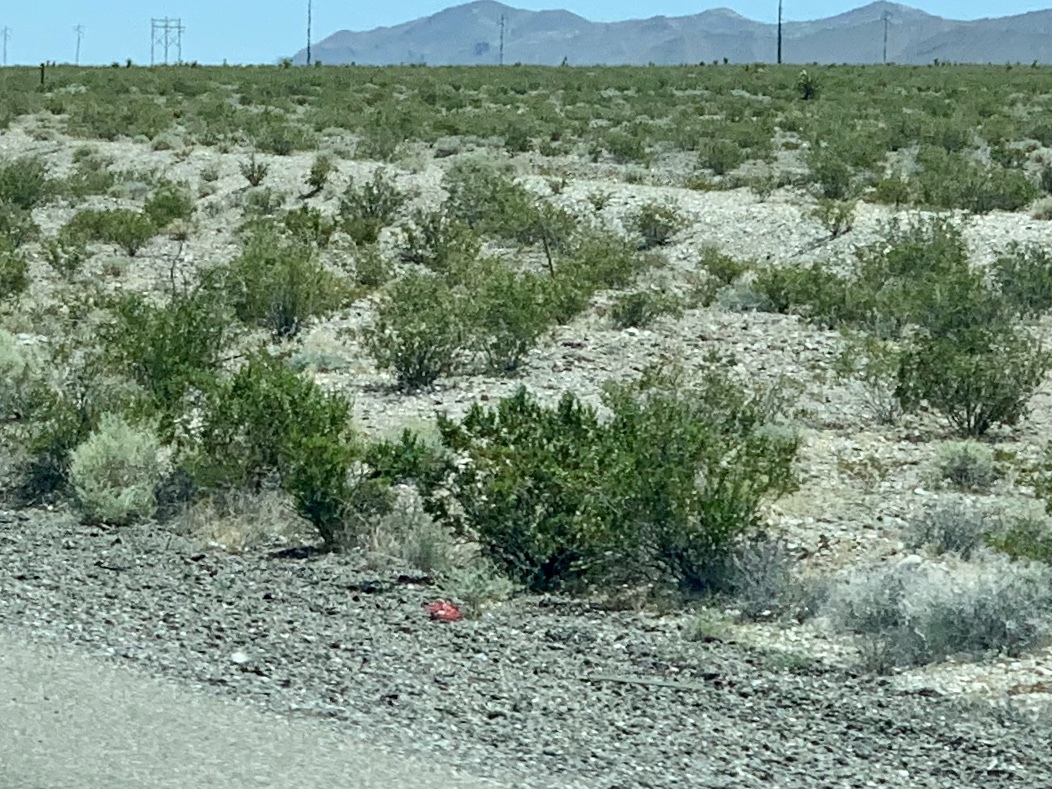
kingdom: Plantae
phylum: Tracheophyta
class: Magnoliopsida
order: Zygophyllales
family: Zygophyllaceae
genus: Larrea
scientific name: Larrea tridentata
